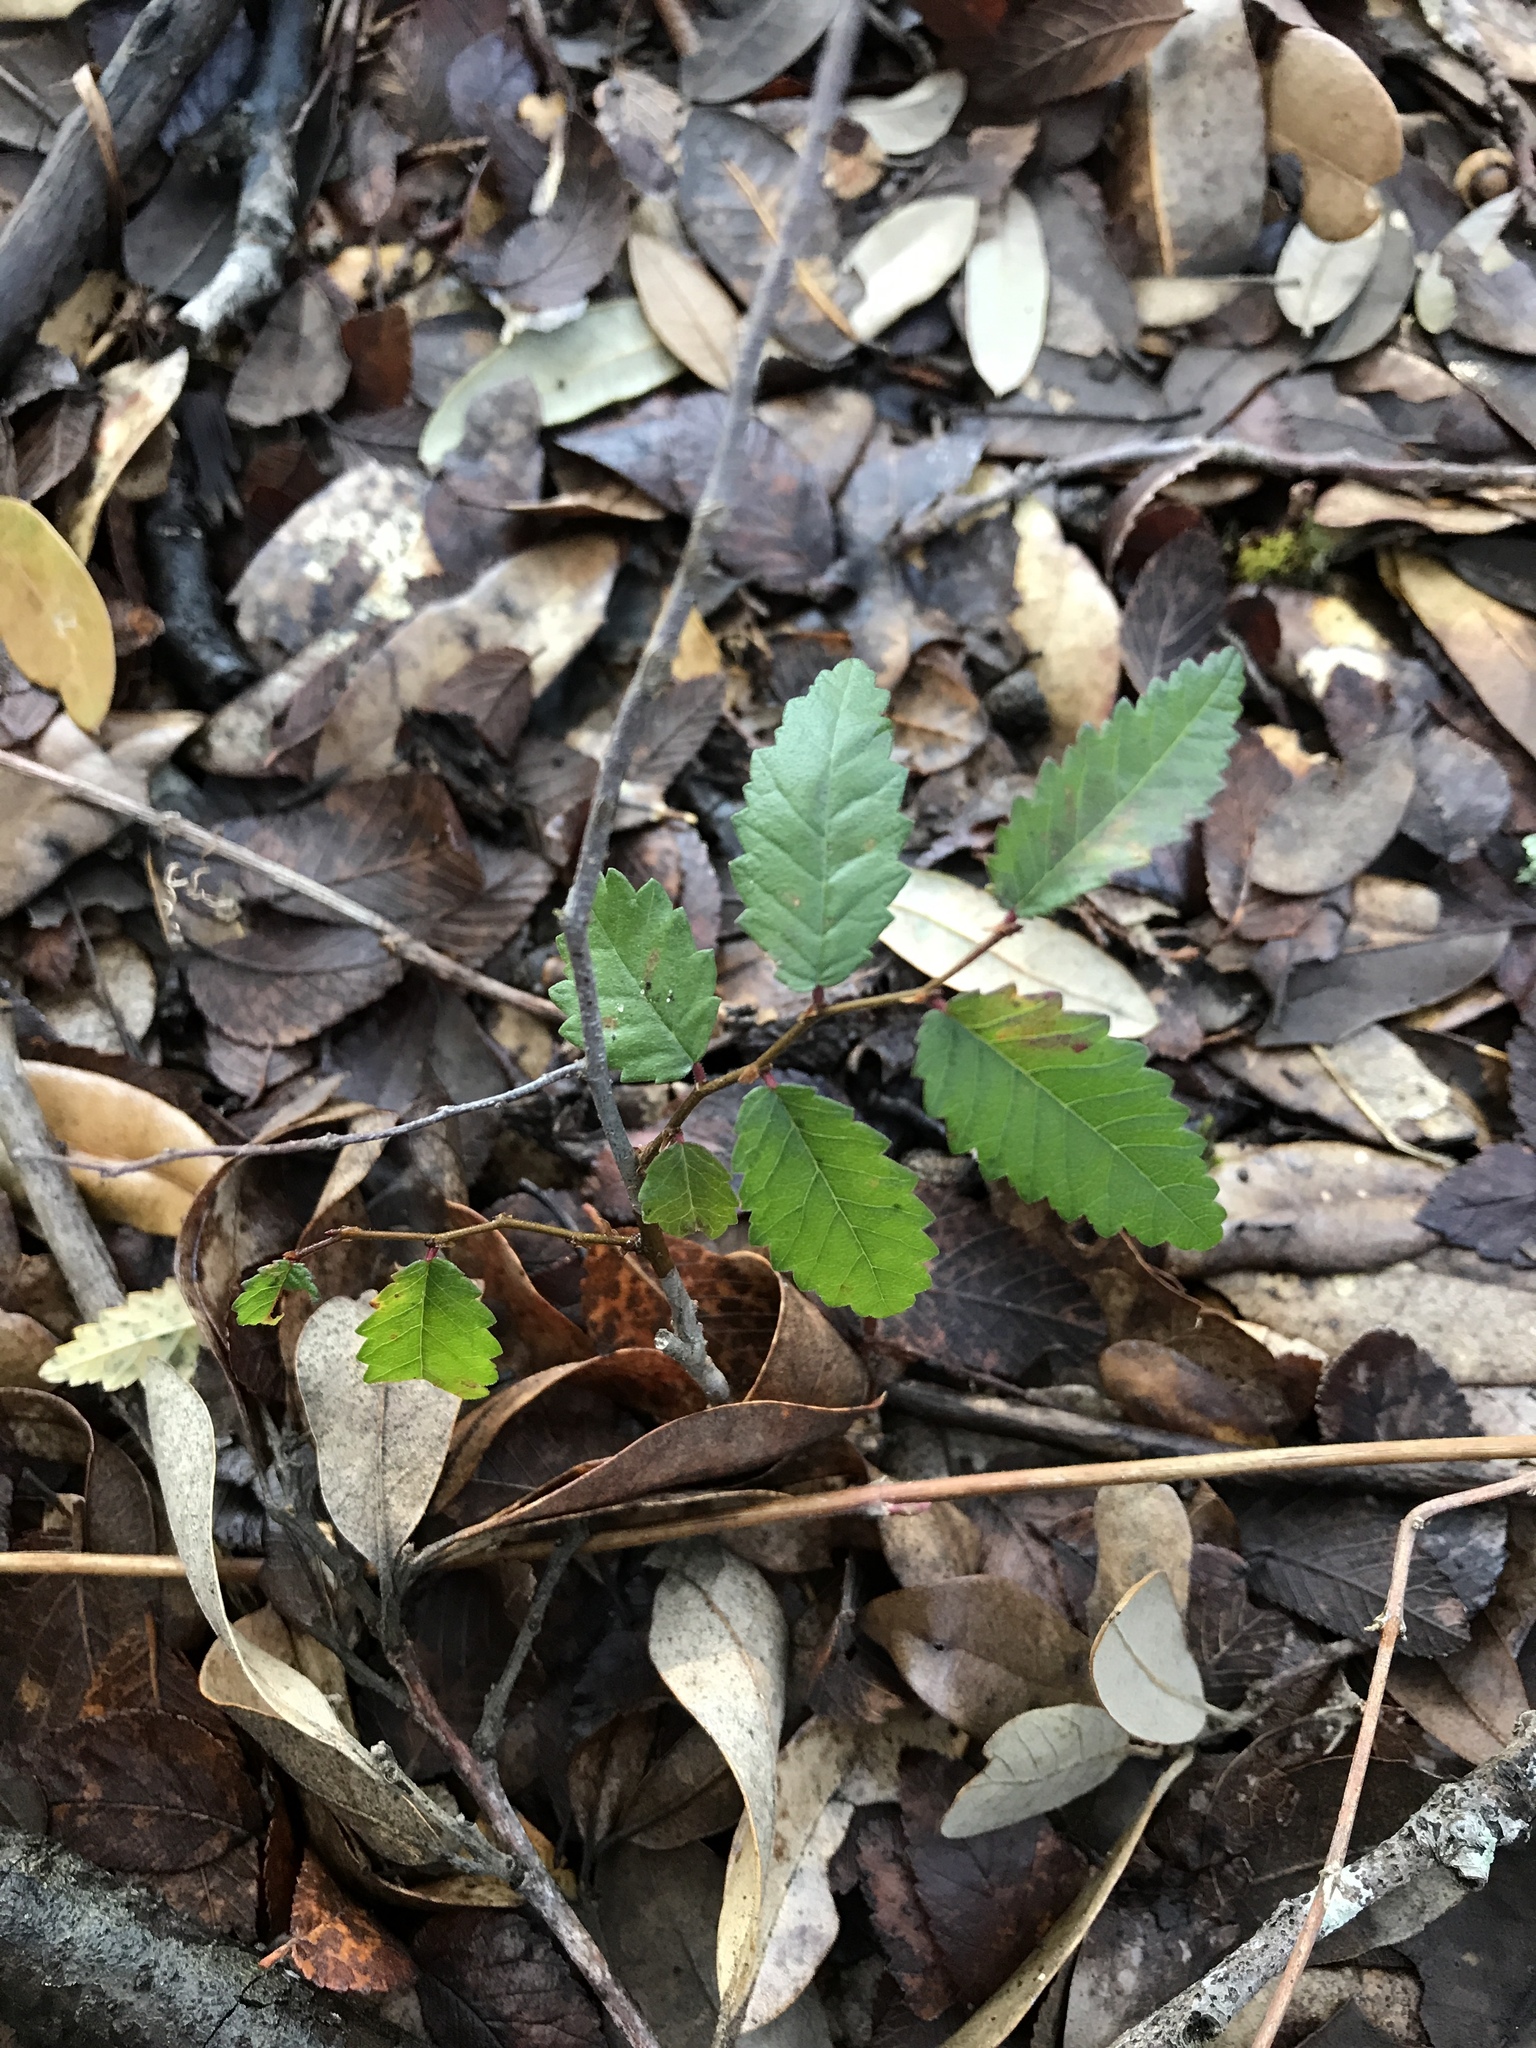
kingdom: Plantae
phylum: Tracheophyta
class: Magnoliopsida
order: Rosales
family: Ulmaceae
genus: Ulmus
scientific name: Ulmus crassifolia
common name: Basket elm
